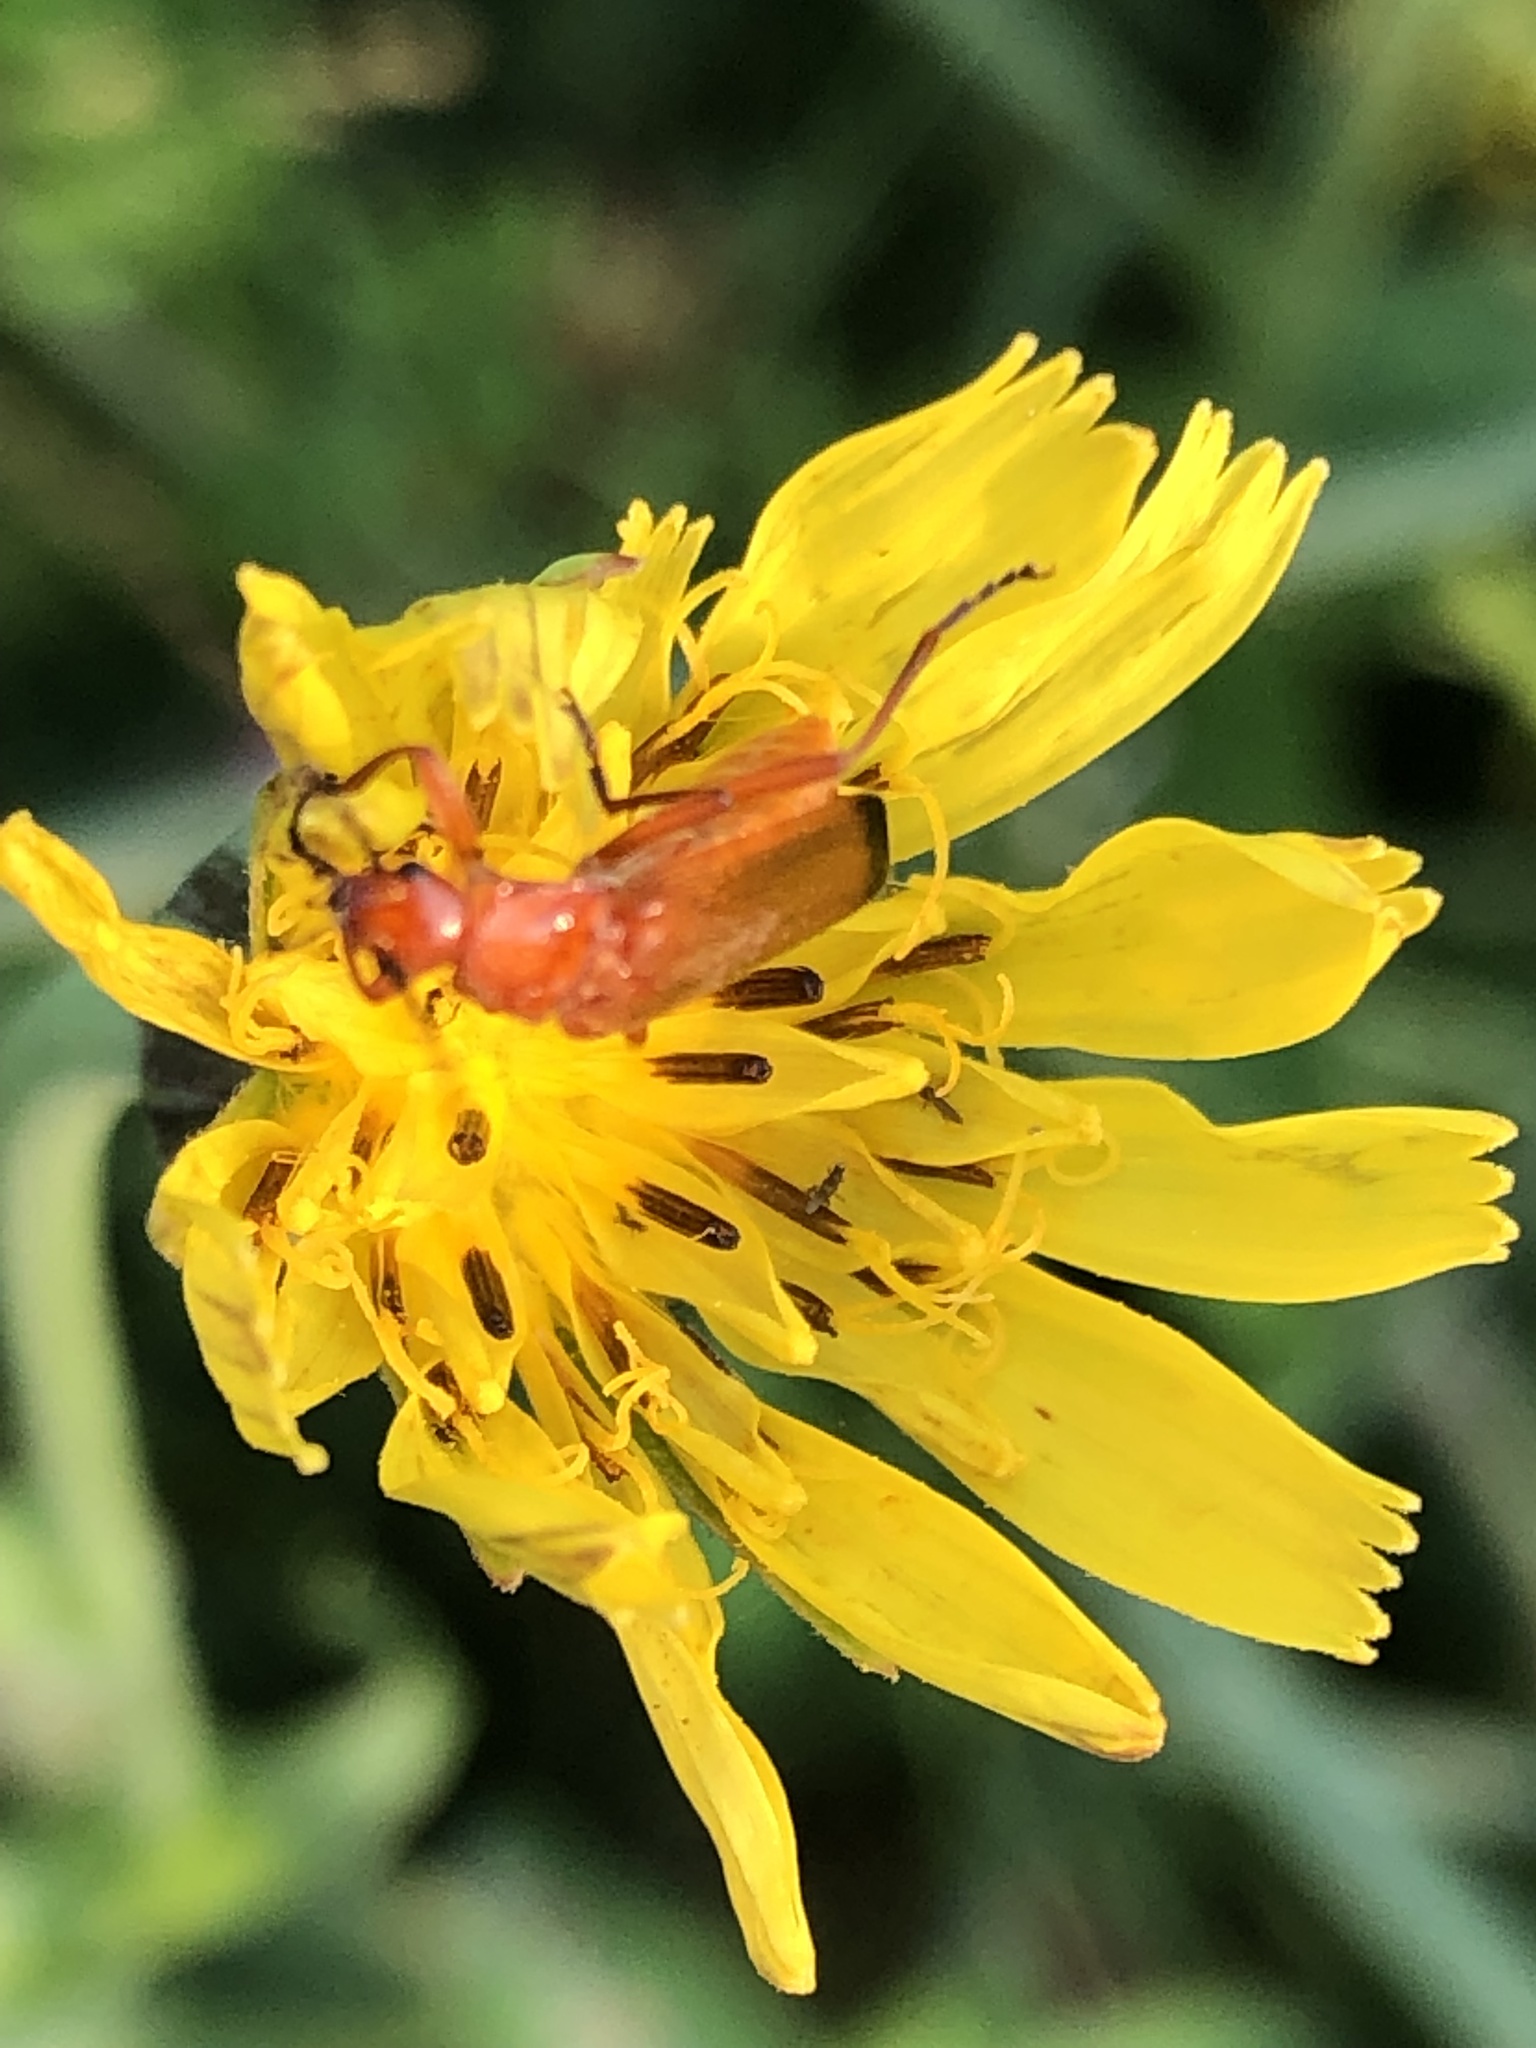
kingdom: Animalia
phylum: Arthropoda
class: Insecta
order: Coleoptera
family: Cantharidae
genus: Rhagonycha
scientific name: Rhagonycha fulva
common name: Common red soldier beetle
